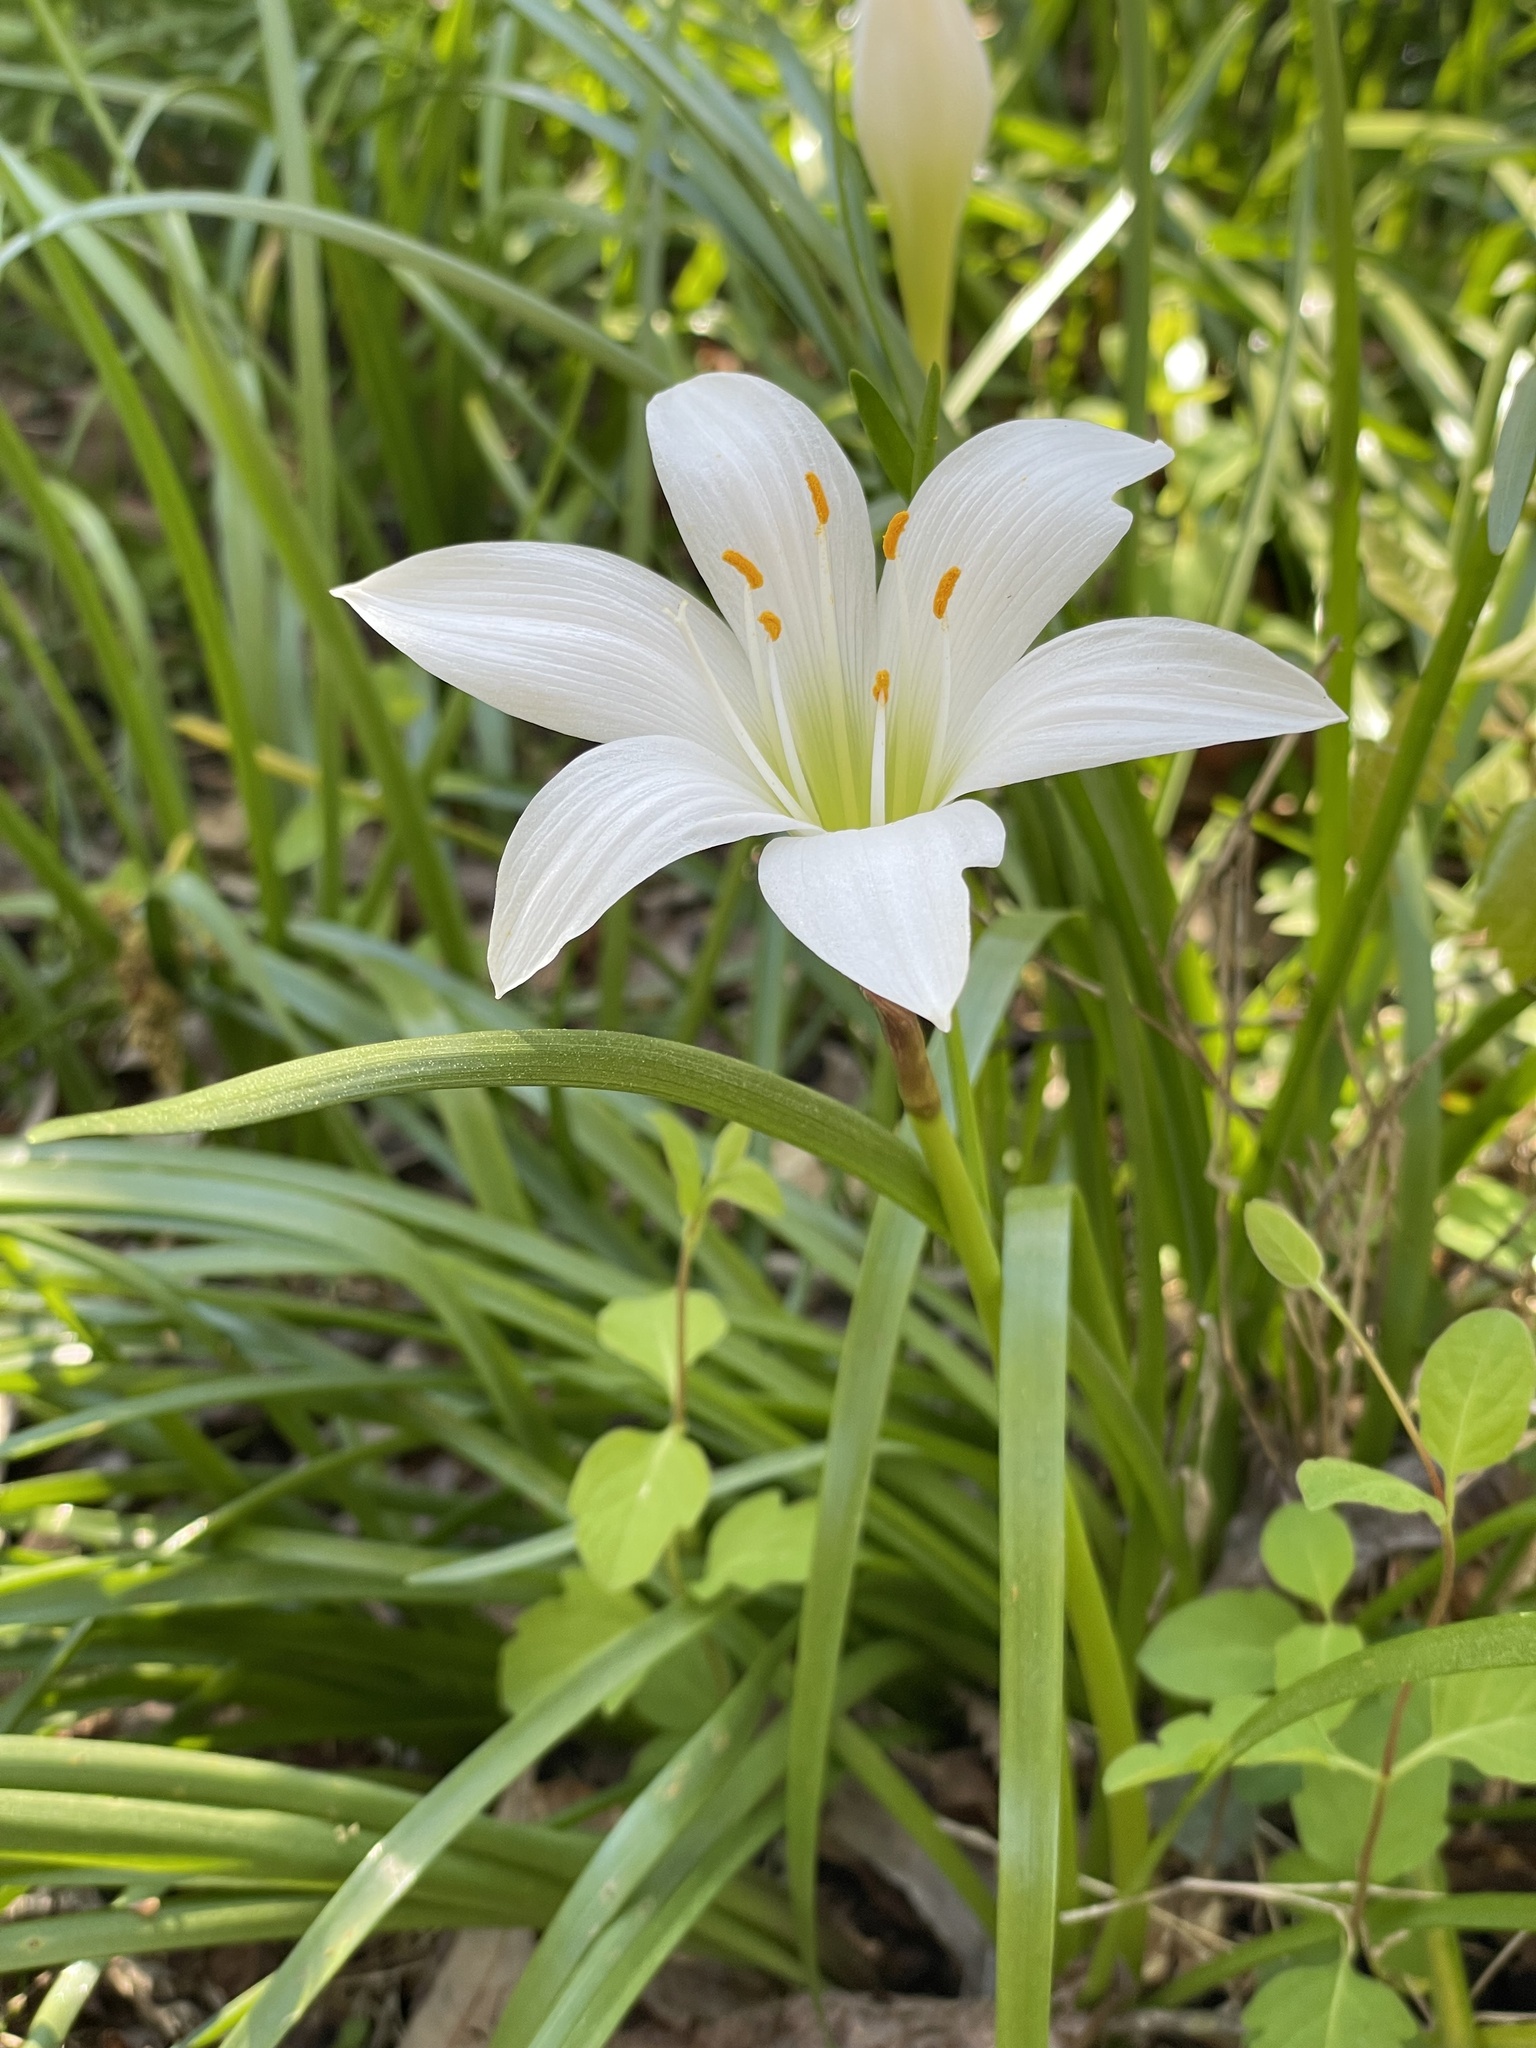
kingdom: Plantae
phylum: Tracheophyta
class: Liliopsida
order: Asparagales
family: Amaryllidaceae
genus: Zephyranthes
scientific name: Zephyranthes atamasco
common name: Atamasco lily
